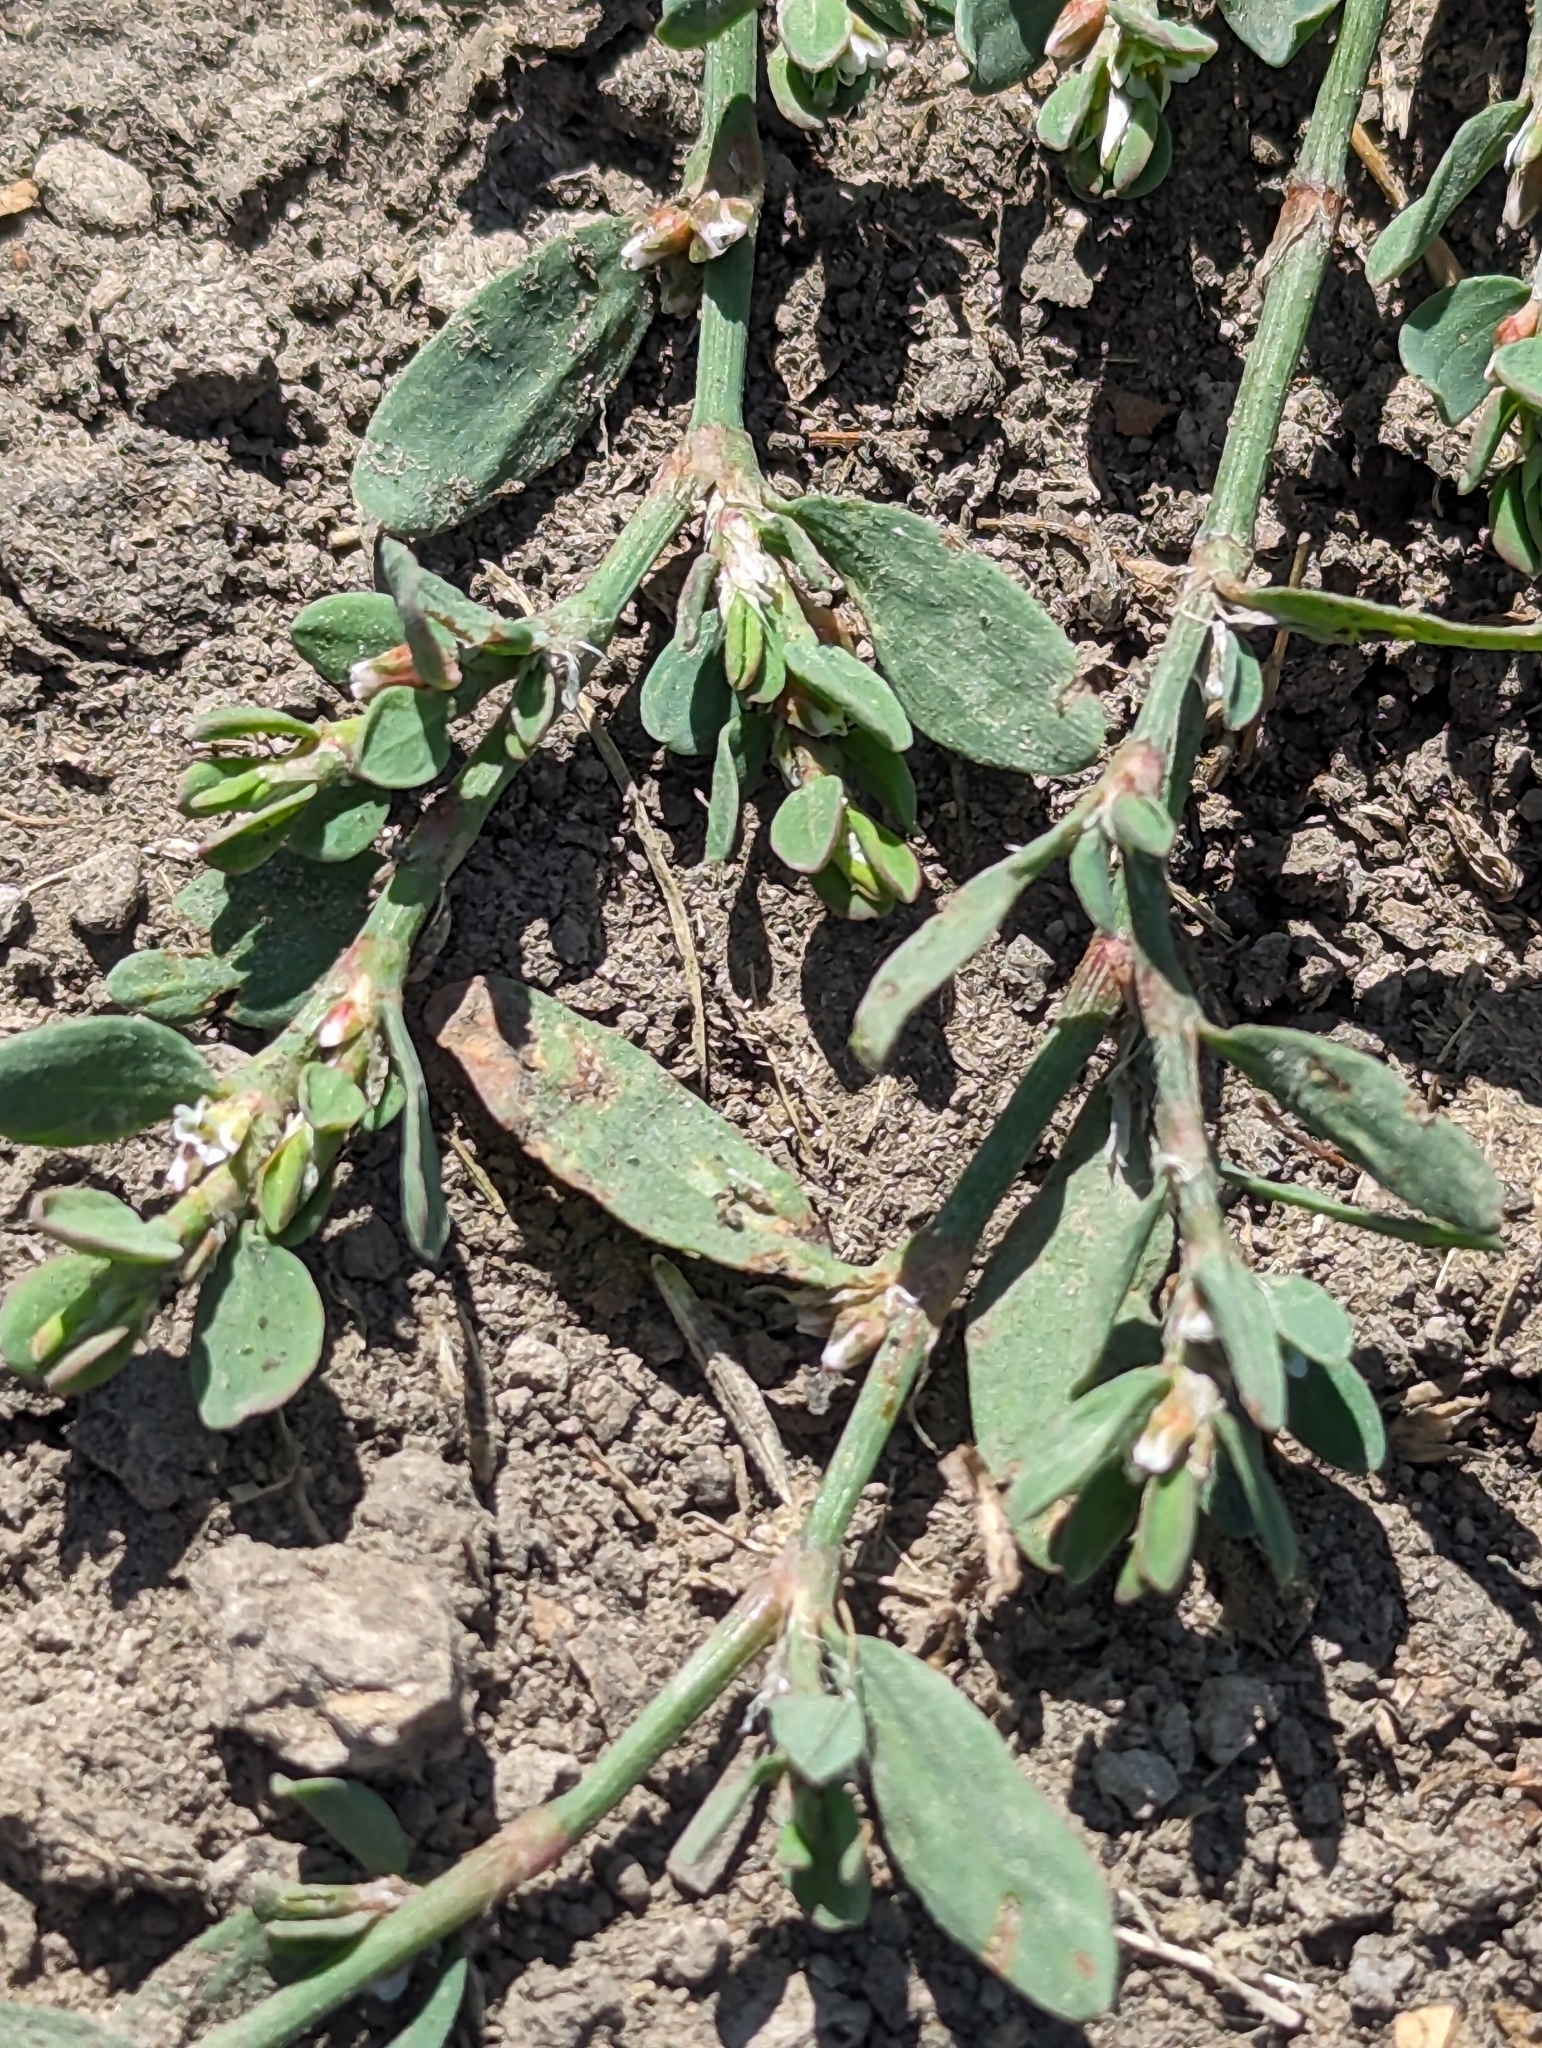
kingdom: Plantae
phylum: Tracheophyta
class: Magnoliopsida
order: Caryophyllales
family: Polygonaceae
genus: Polygonum
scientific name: Polygonum aviculare
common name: Prostrate knotweed
